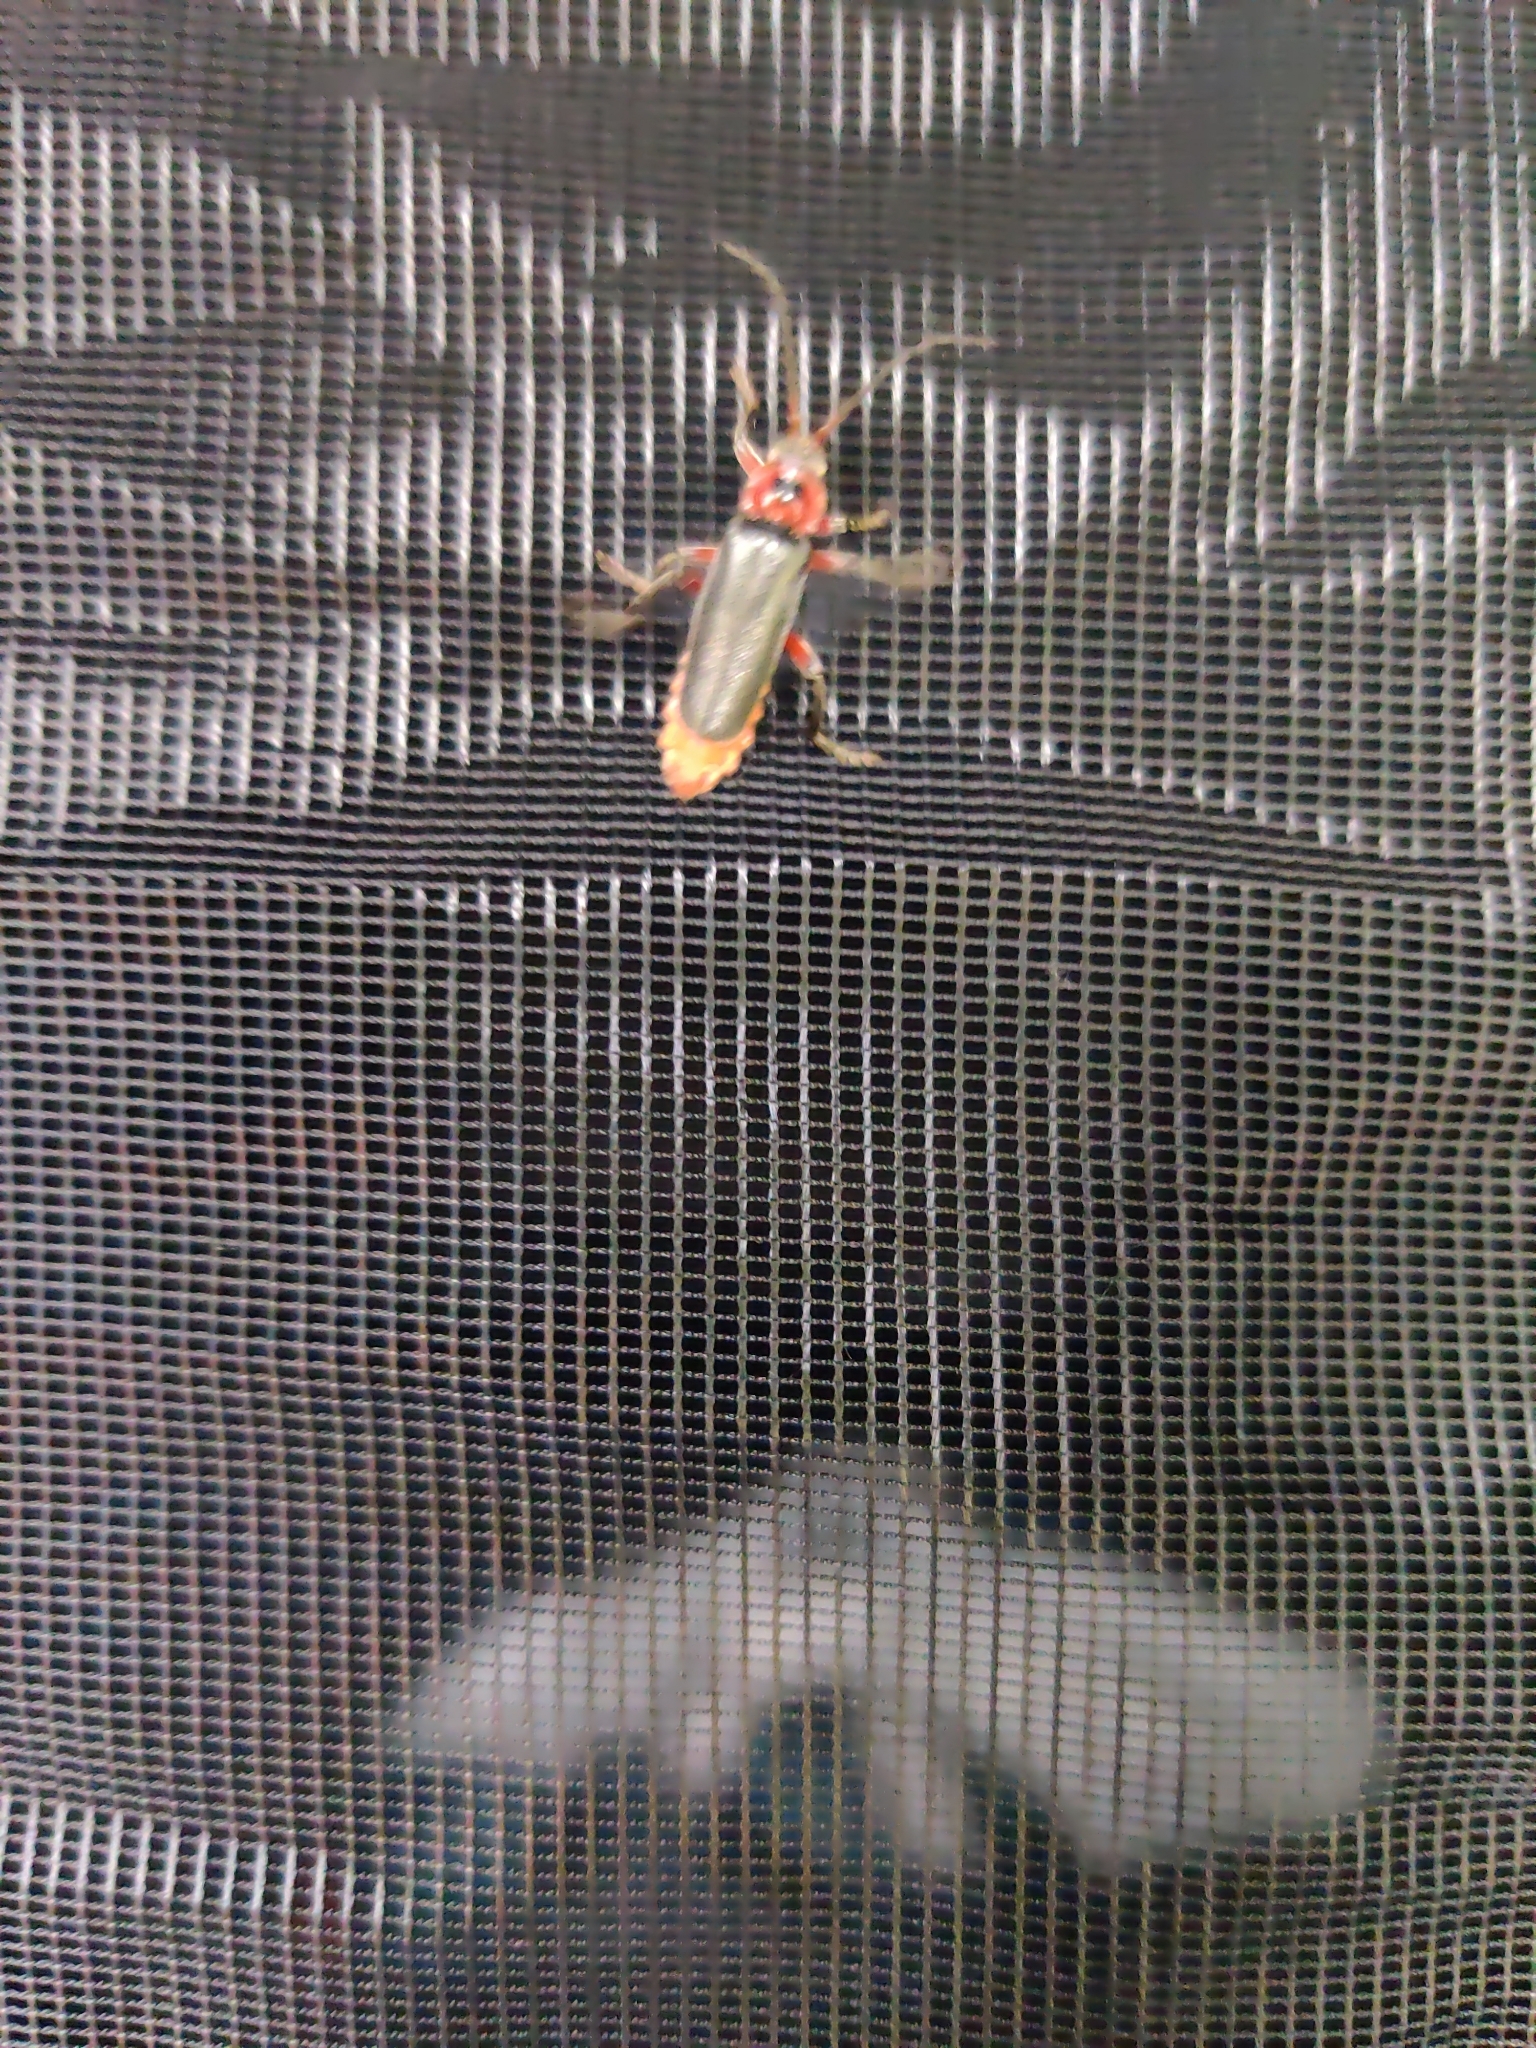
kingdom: Animalia
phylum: Arthropoda
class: Insecta
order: Coleoptera
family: Cantharidae
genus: Cantharis
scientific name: Cantharis rustica
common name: Soldier beetle
